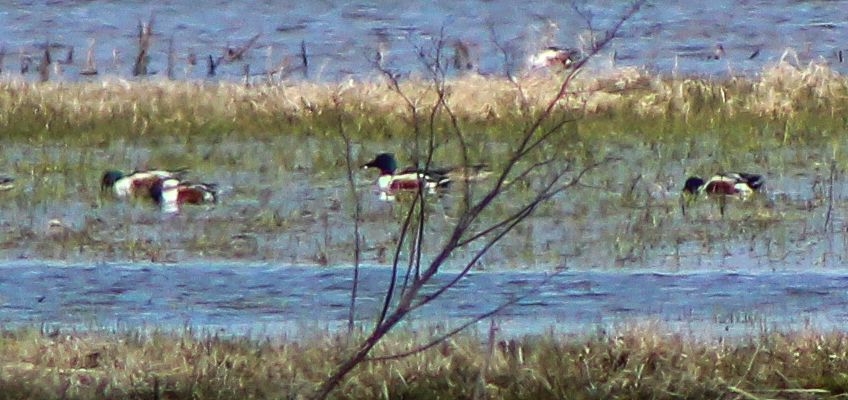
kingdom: Animalia
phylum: Chordata
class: Aves
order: Anseriformes
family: Anatidae
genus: Spatula
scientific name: Spatula clypeata
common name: Northern shoveler
